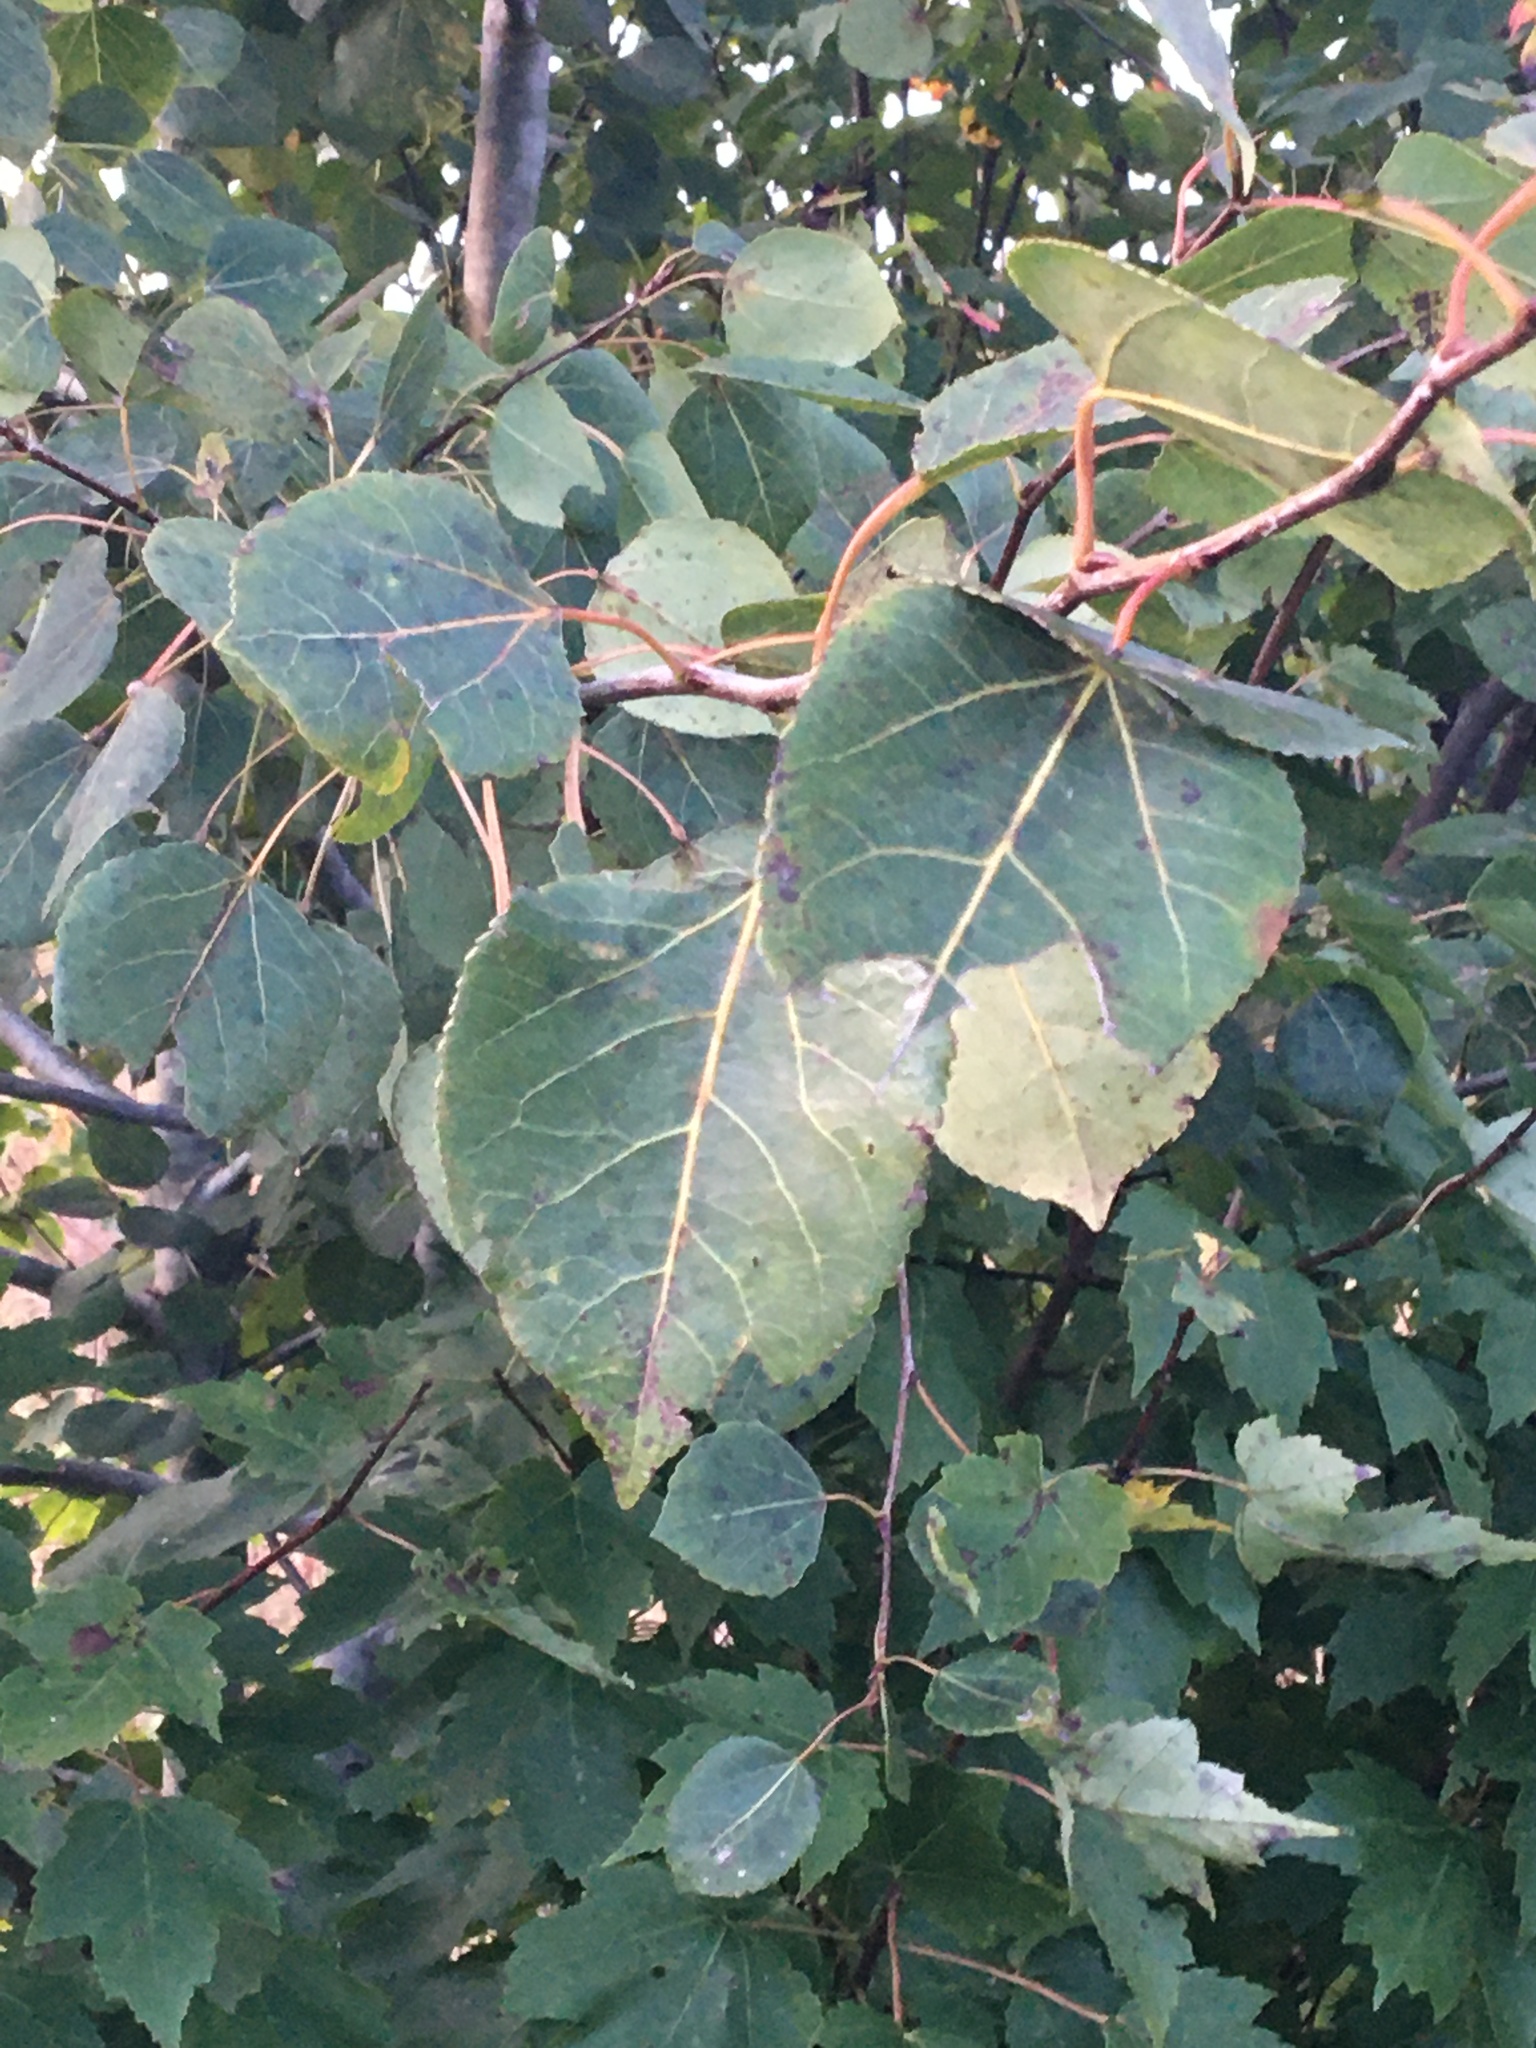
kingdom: Plantae
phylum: Tracheophyta
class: Magnoliopsida
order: Malpighiales
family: Salicaceae
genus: Populus
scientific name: Populus tremuloides
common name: Quaking aspen
